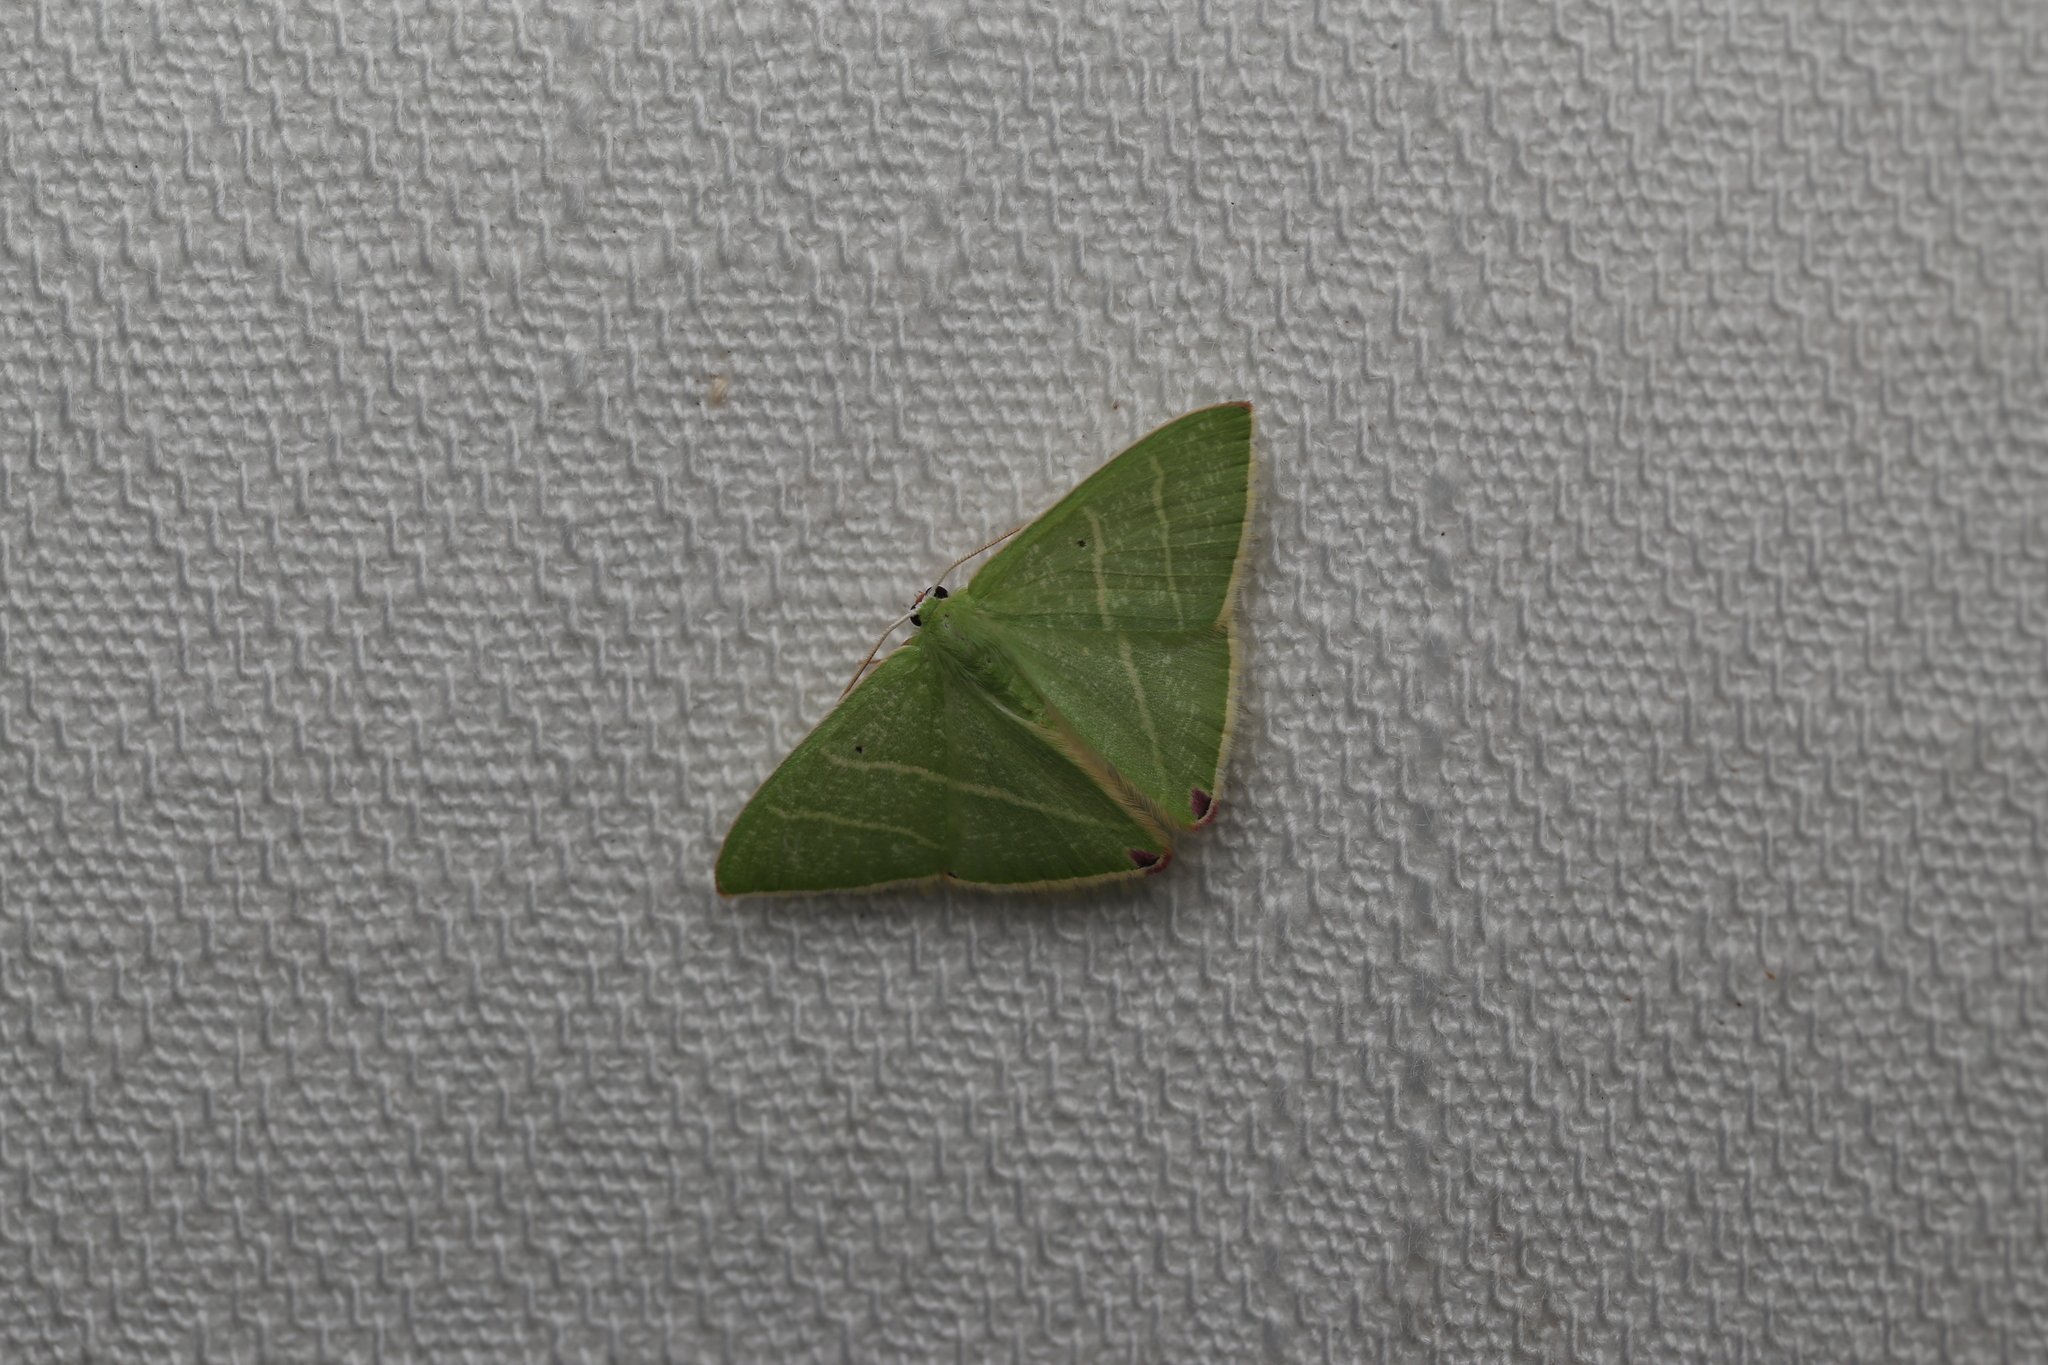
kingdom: Animalia
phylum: Arthropoda
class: Insecta
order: Lepidoptera
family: Geometridae
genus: Urolitha
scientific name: Urolitha bipunctifera
